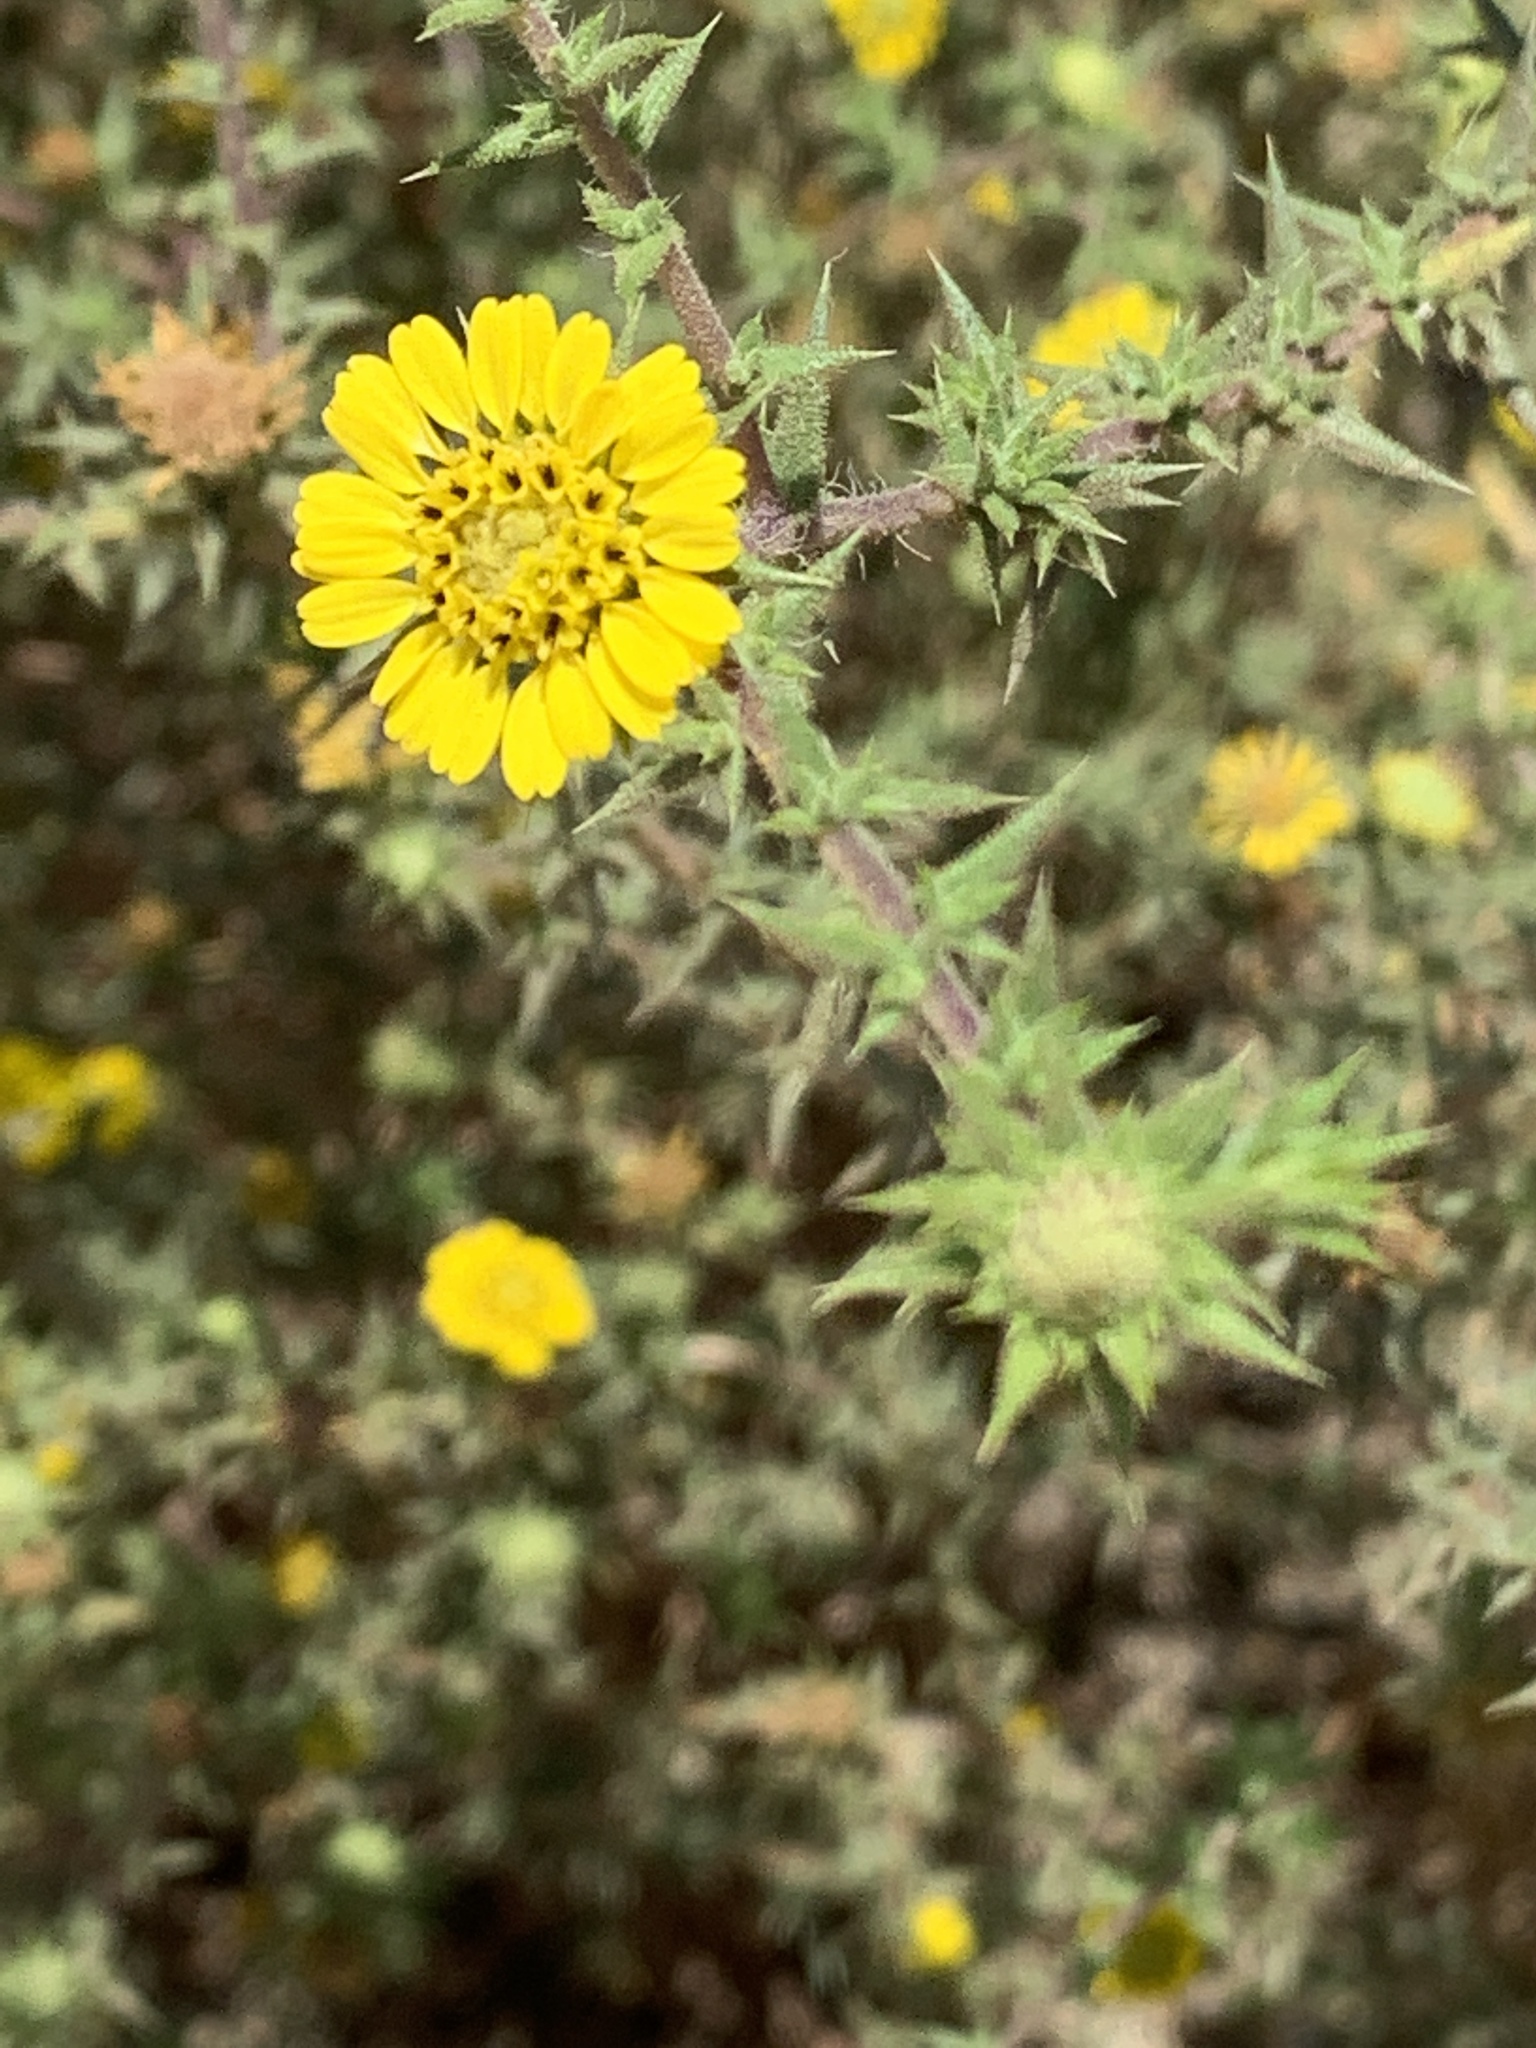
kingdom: Plantae
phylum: Tracheophyta
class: Magnoliopsida
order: Asterales
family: Asteraceae
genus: Centromadia
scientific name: Centromadia parryi
